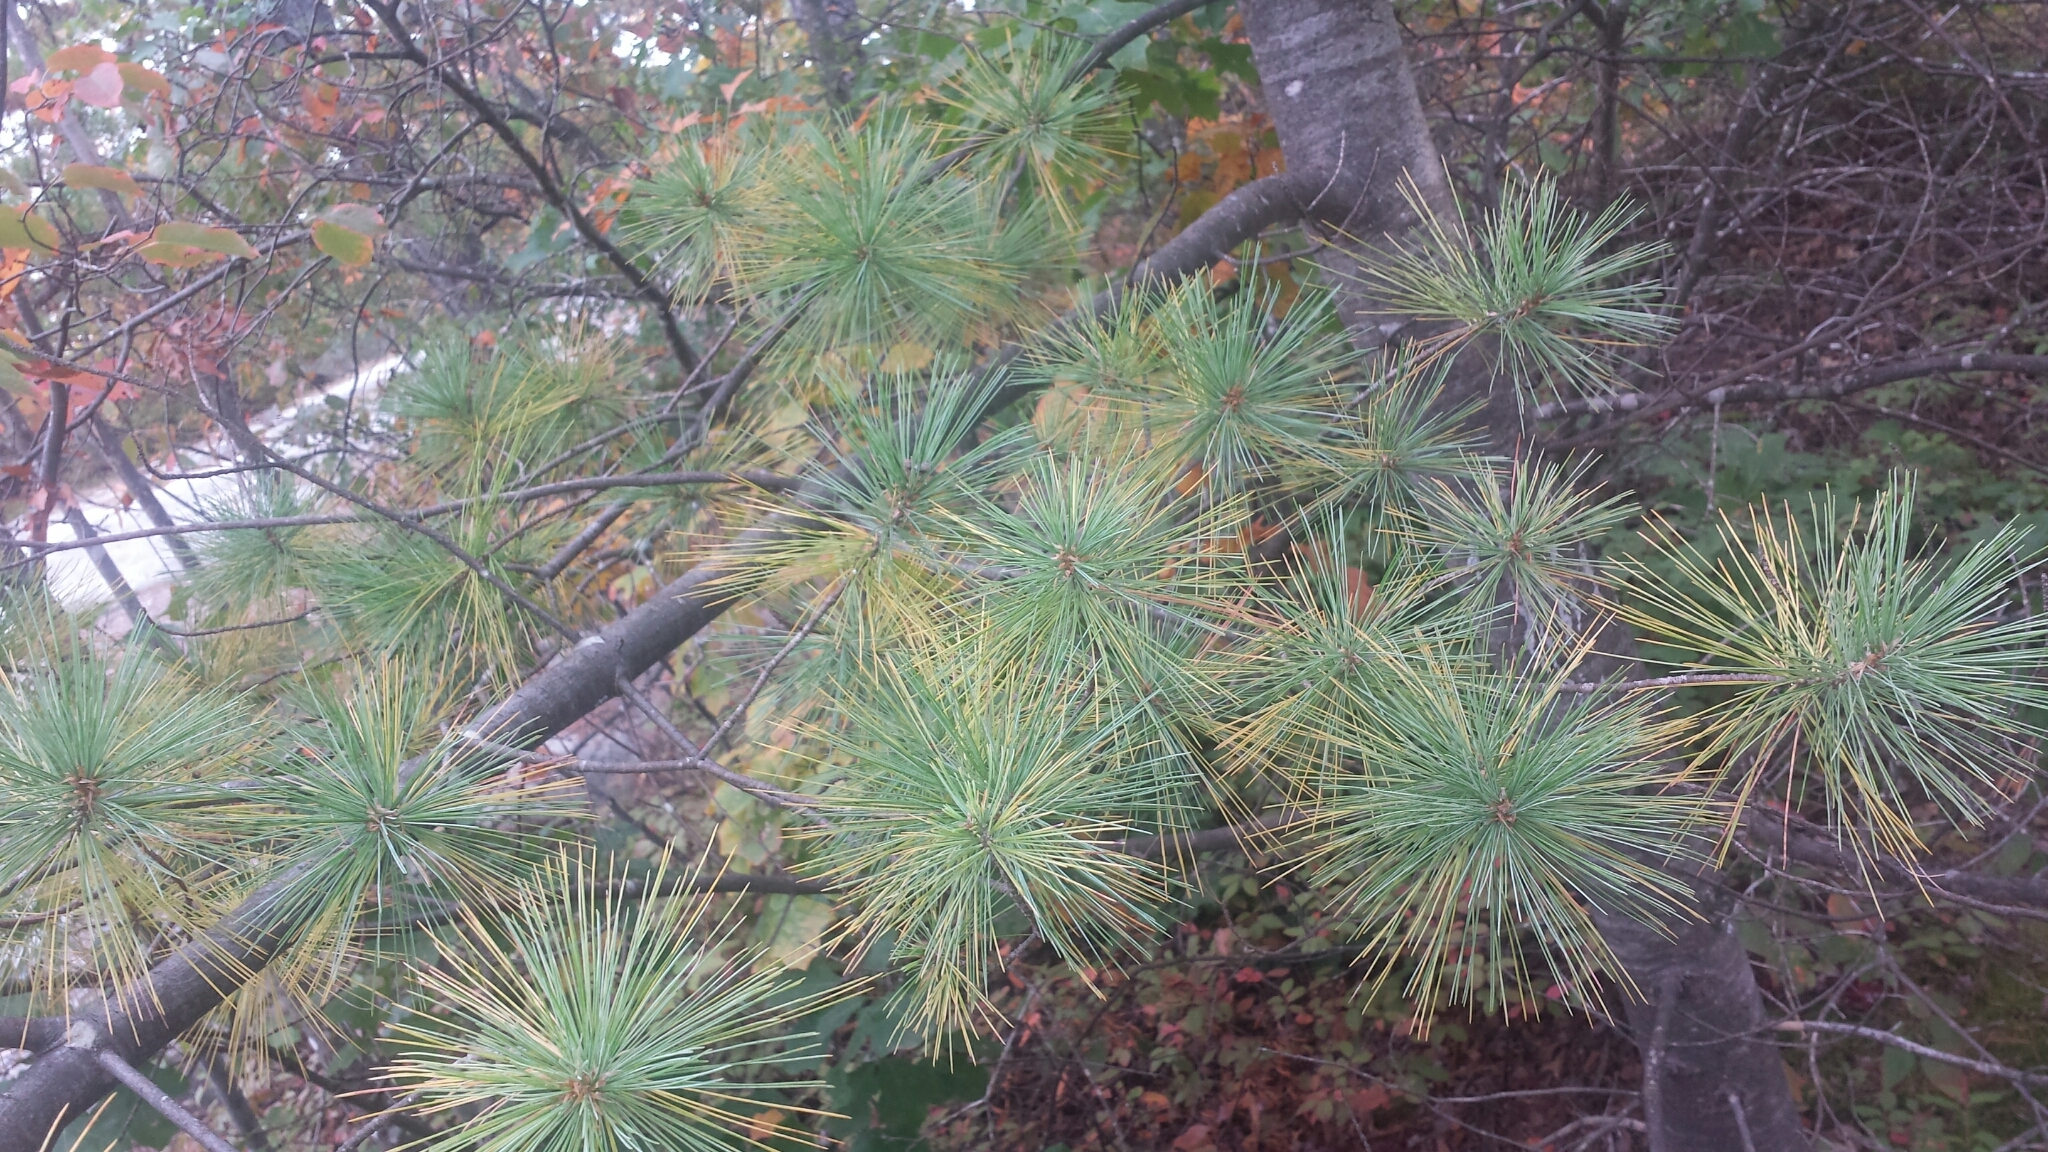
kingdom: Plantae
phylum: Tracheophyta
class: Pinopsida
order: Pinales
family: Pinaceae
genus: Pinus
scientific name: Pinus strobus
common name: Weymouth pine
